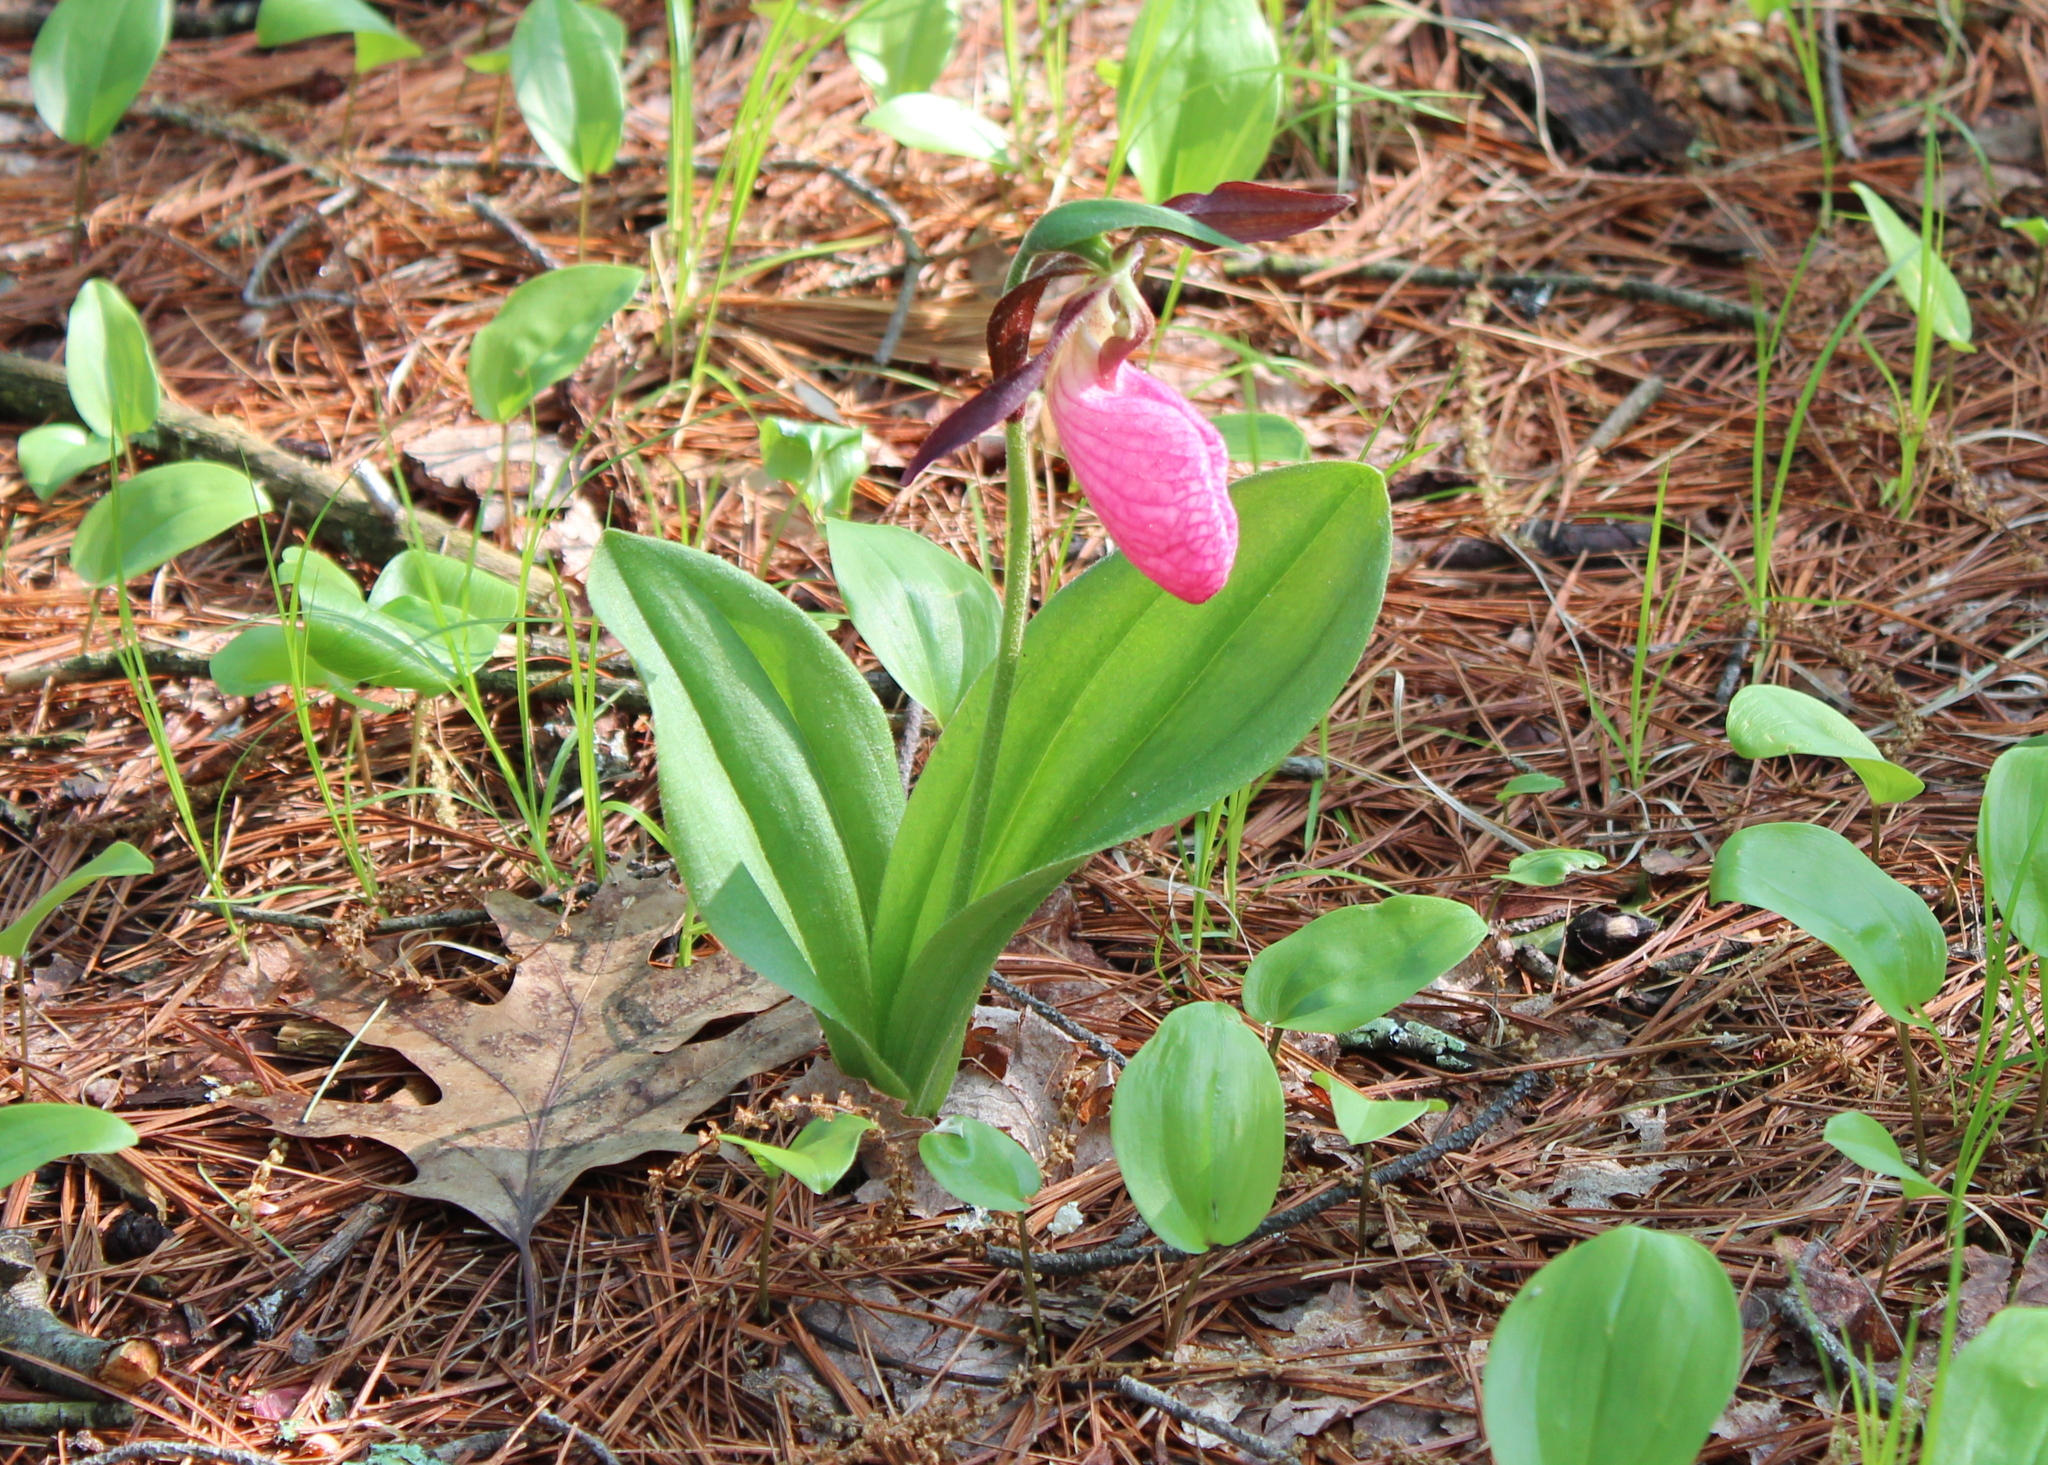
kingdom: Plantae
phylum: Tracheophyta
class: Liliopsida
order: Asparagales
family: Orchidaceae
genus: Cypripedium
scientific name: Cypripedium acaule
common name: Pink lady's-slipper
